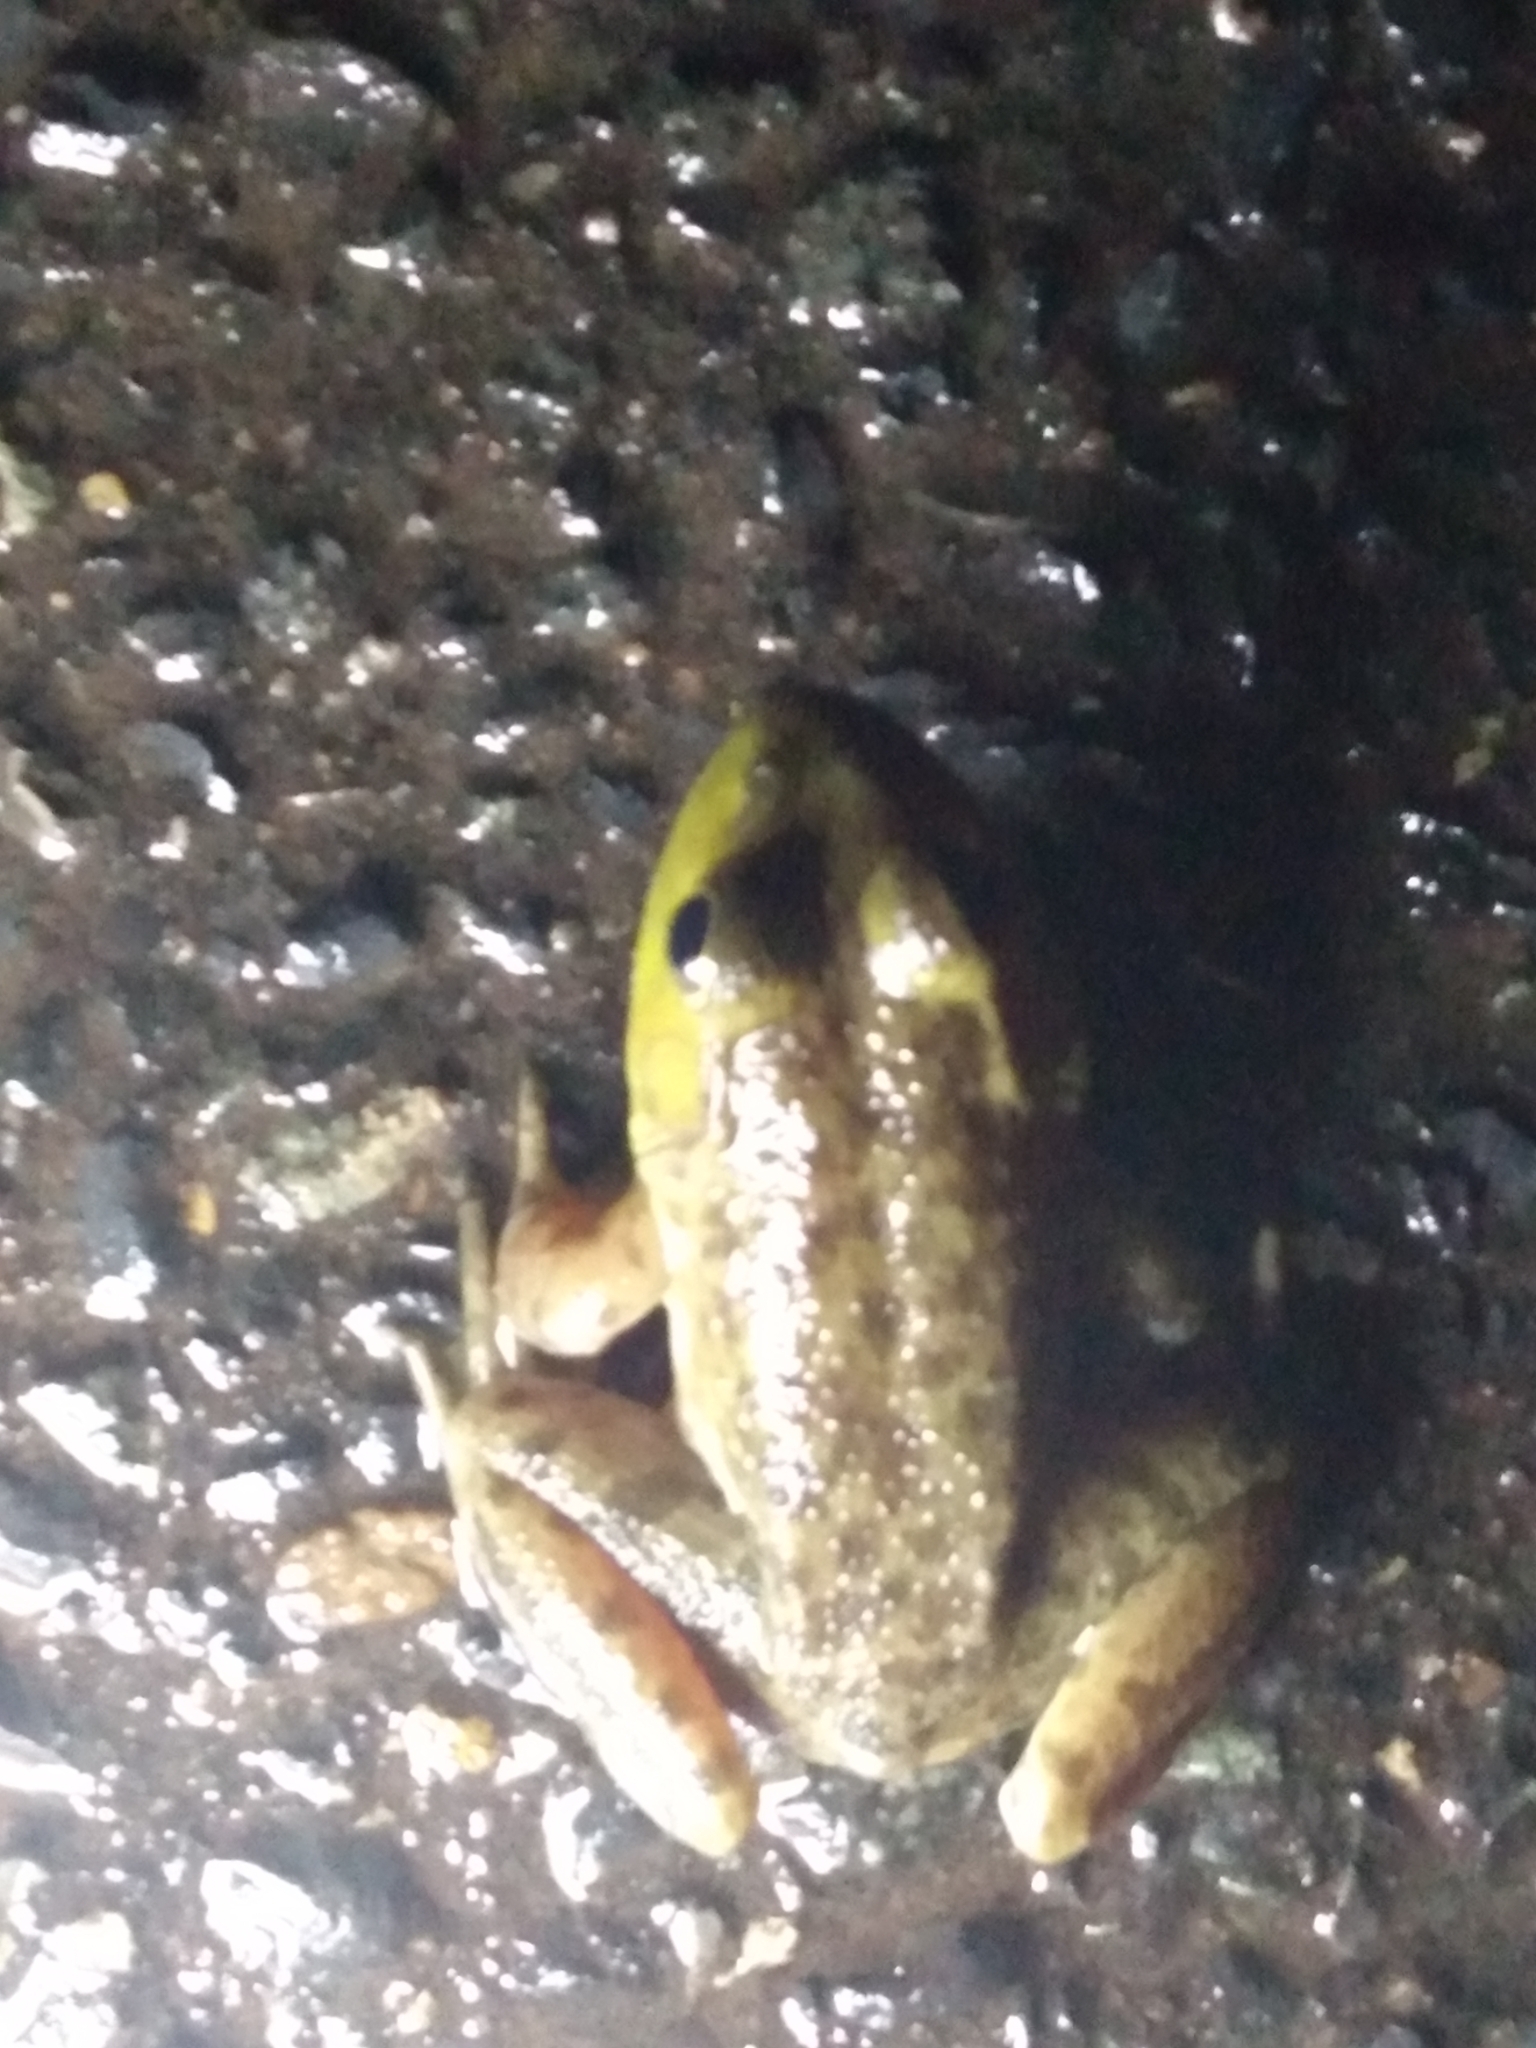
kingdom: Animalia
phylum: Chordata
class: Amphibia
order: Anura
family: Ranidae
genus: Lithobates
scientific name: Lithobates catesbeianus
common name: American bullfrog
